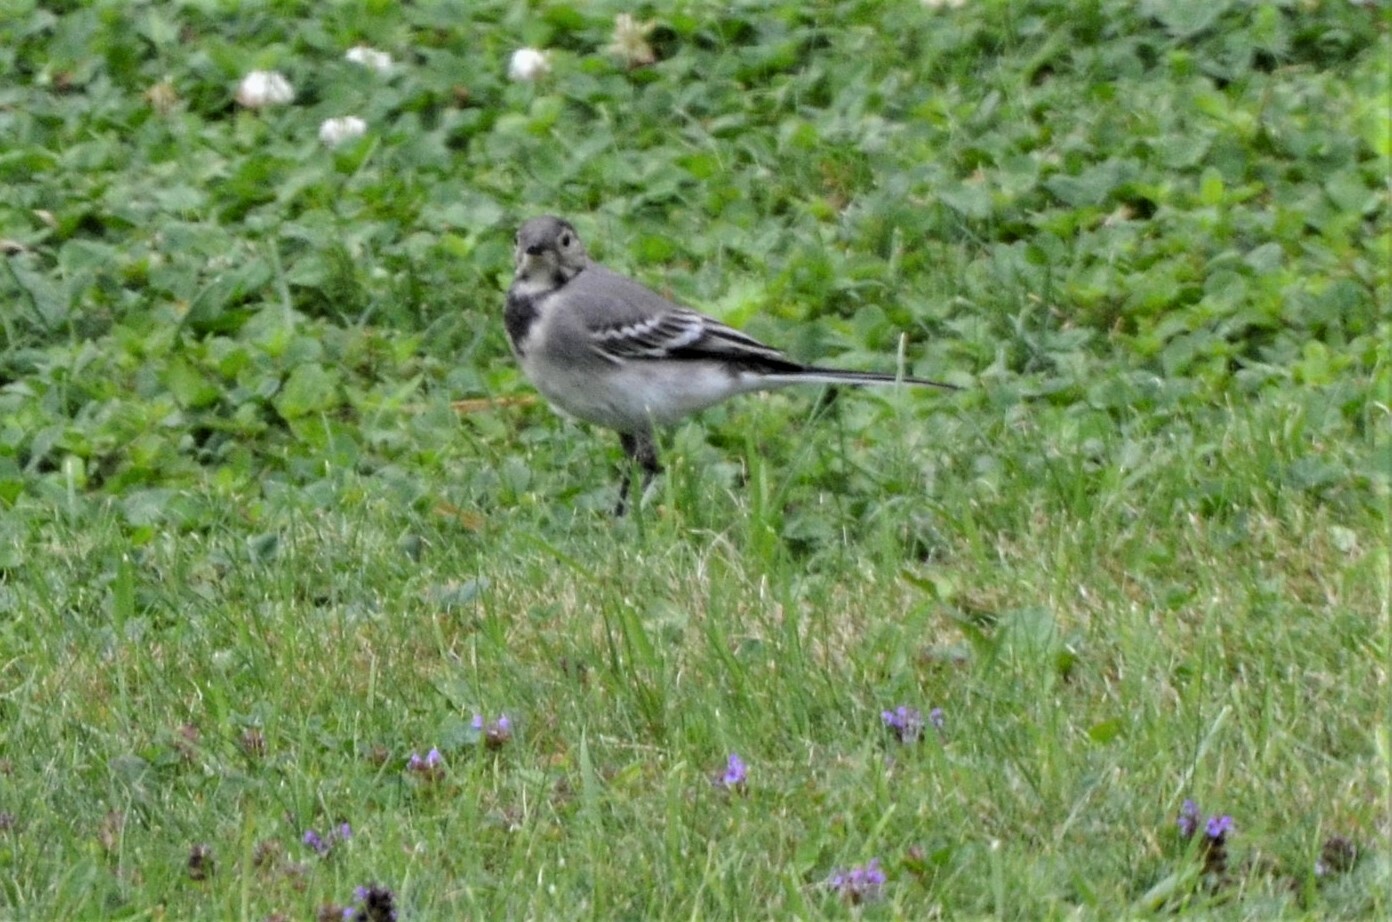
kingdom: Animalia
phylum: Chordata
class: Aves
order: Passeriformes
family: Motacillidae
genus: Motacilla
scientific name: Motacilla alba
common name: White wagtail
